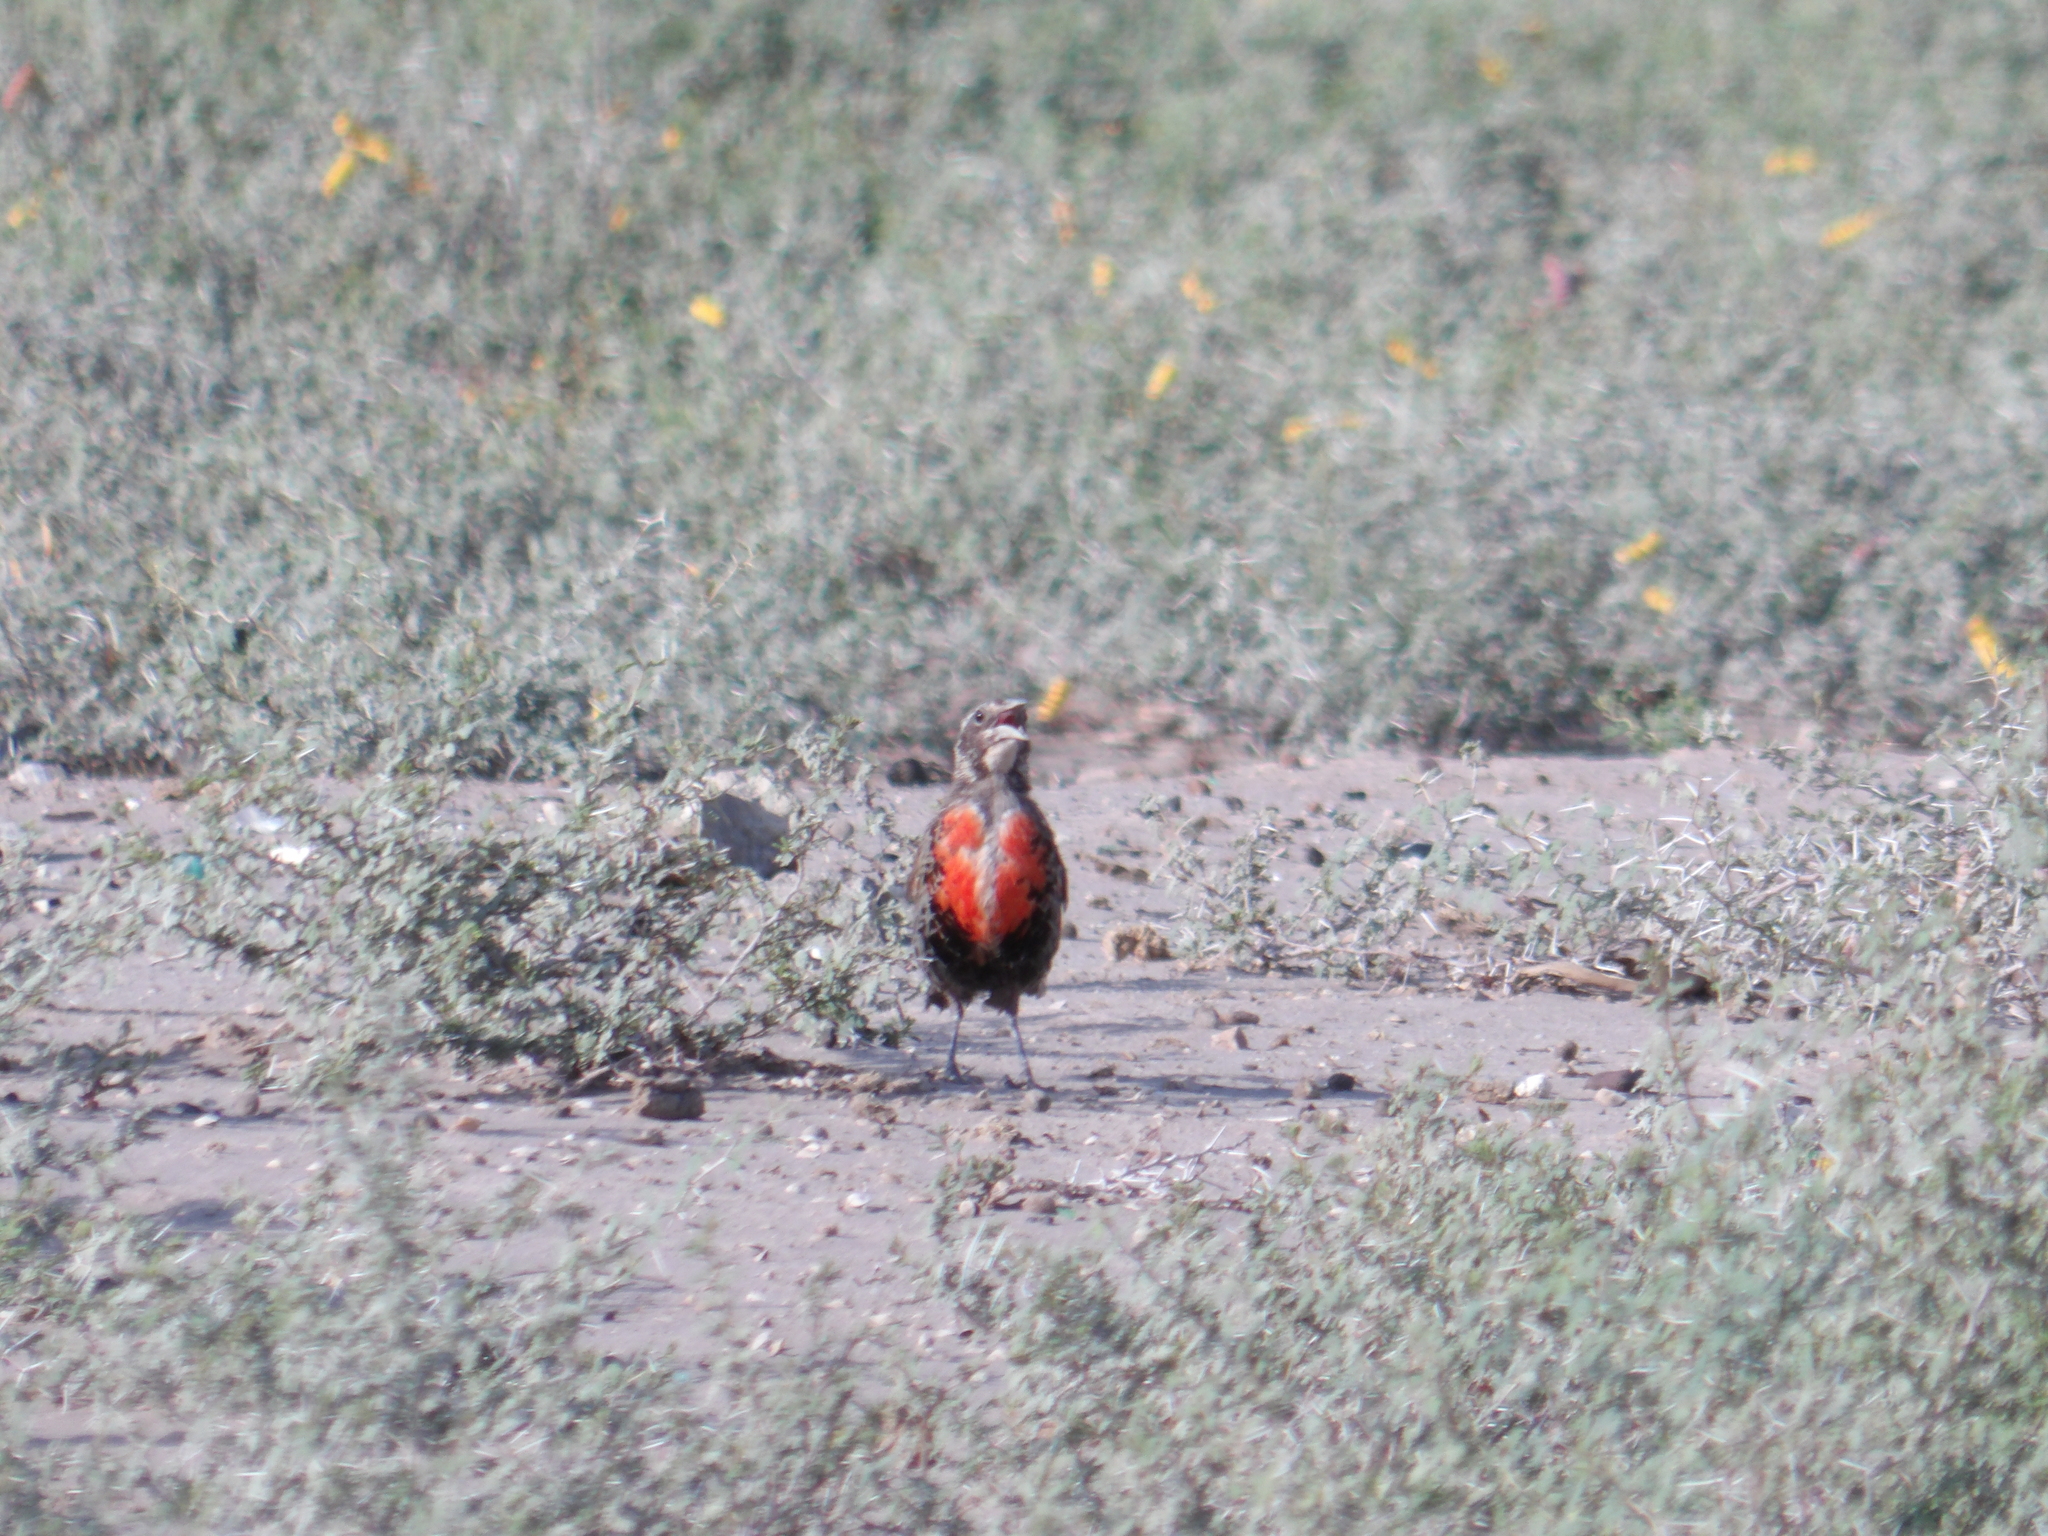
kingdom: Animalia
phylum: Chordata
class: Aves
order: Passeriformes
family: Icteridae
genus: Sturnella
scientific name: Sturnella loyca
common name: Long-tailed meadowlark
